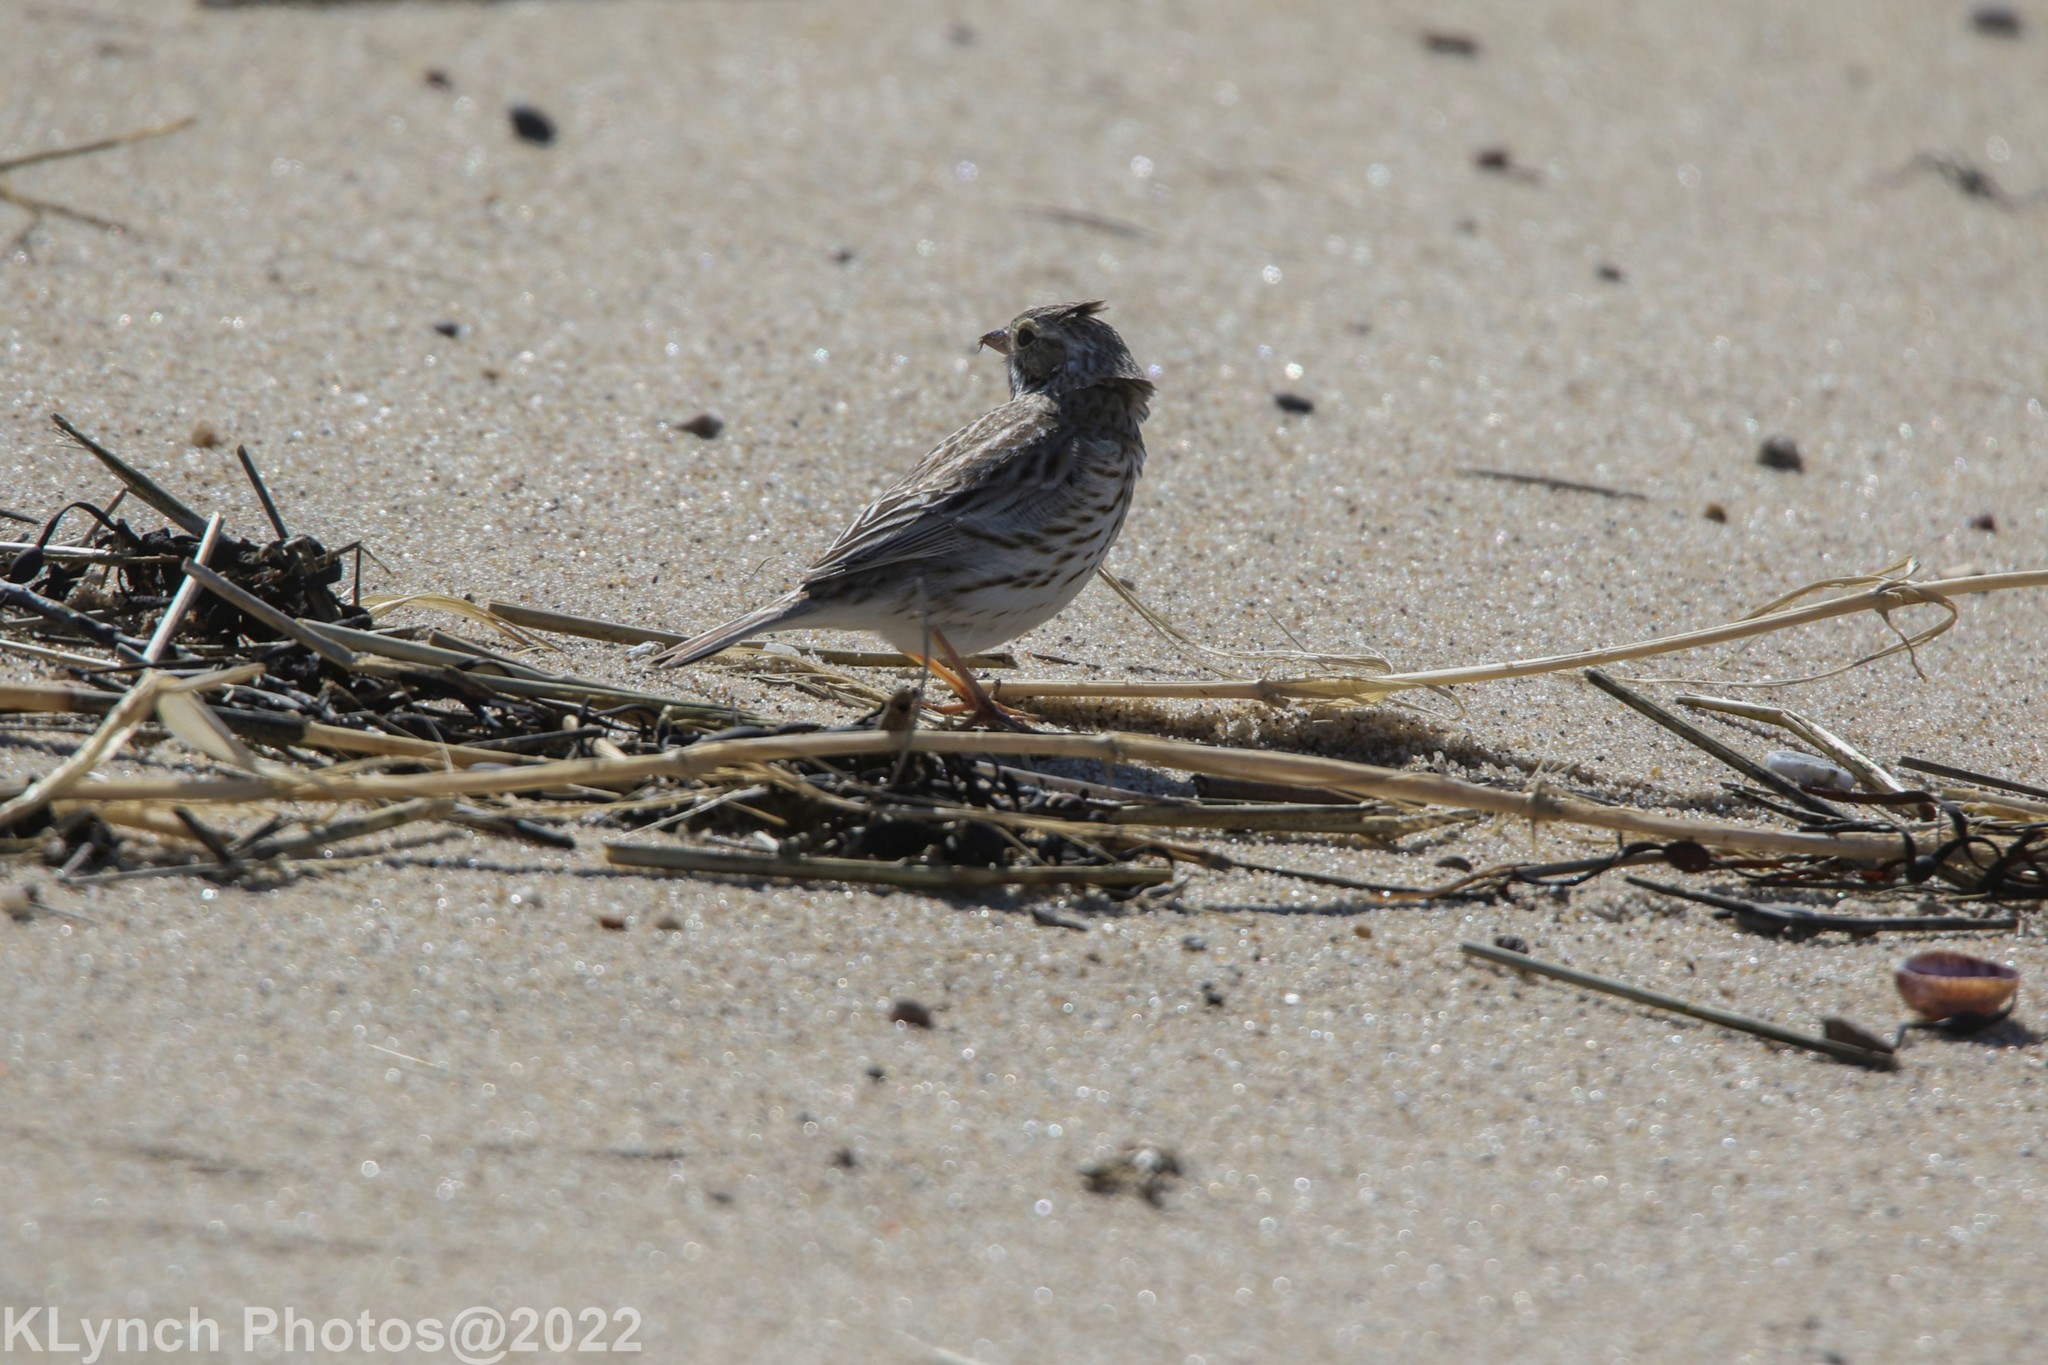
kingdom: Animalia
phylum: Chordata
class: Aves
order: Passeriformes
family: Passerellidae
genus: Passerculus
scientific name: Passerculus sandwichensis
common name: Savannah sparrow
